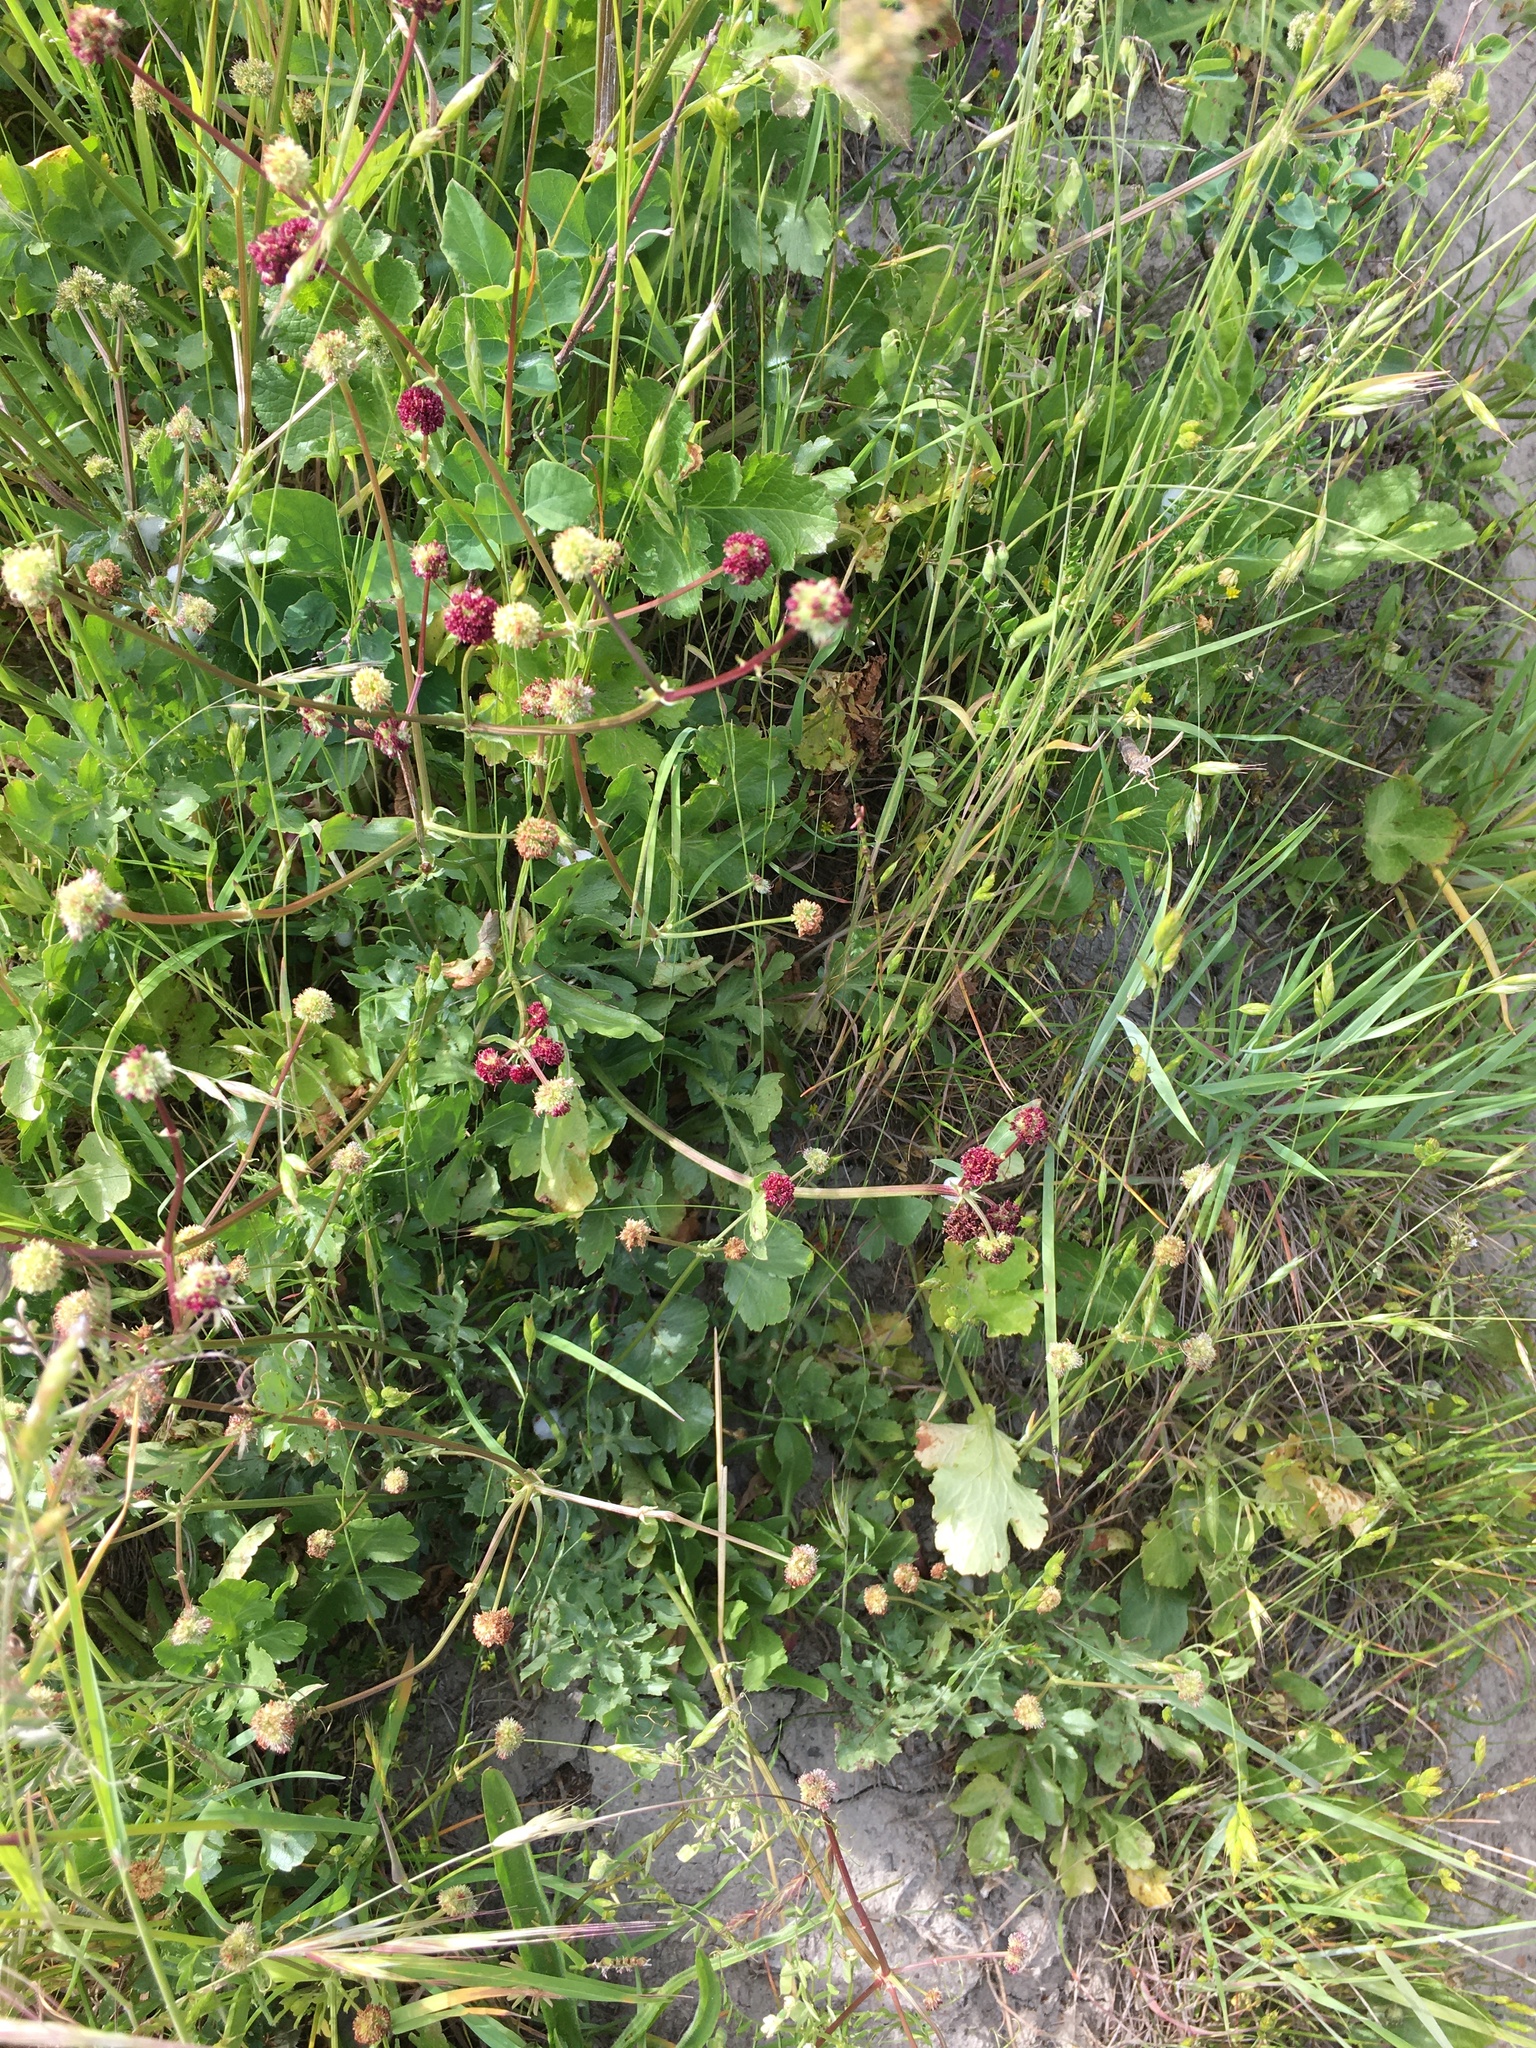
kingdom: Plantae
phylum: Tracheophyta
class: Magnoliopsida
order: Apiales
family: Apiaceae
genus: Sanicula
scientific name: Sanicula bipinnatifida
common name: Shoe-buttons
